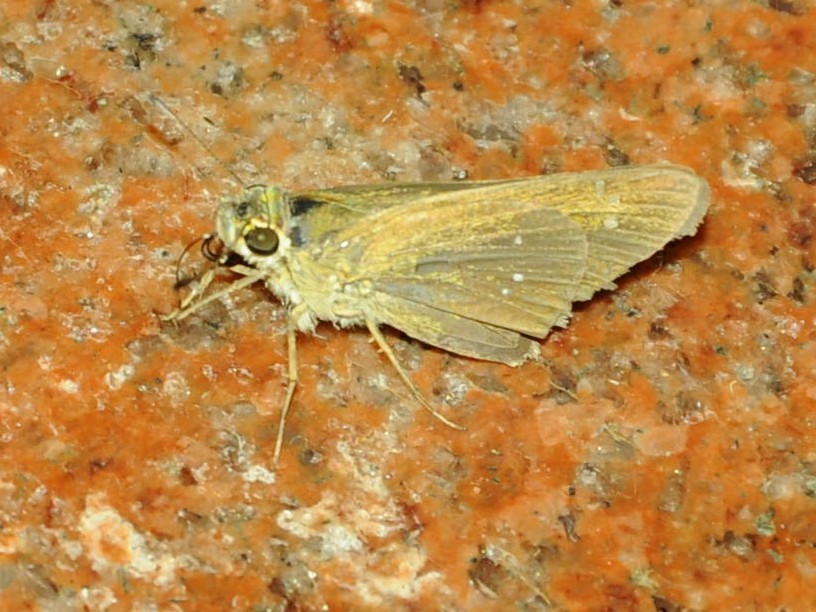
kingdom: Animalia
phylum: Arthropoda
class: Insecta
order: Lepidoptera
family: Hesperiidae
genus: Pelopidas
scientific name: Pelopidas mathias
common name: Black-branded swift
